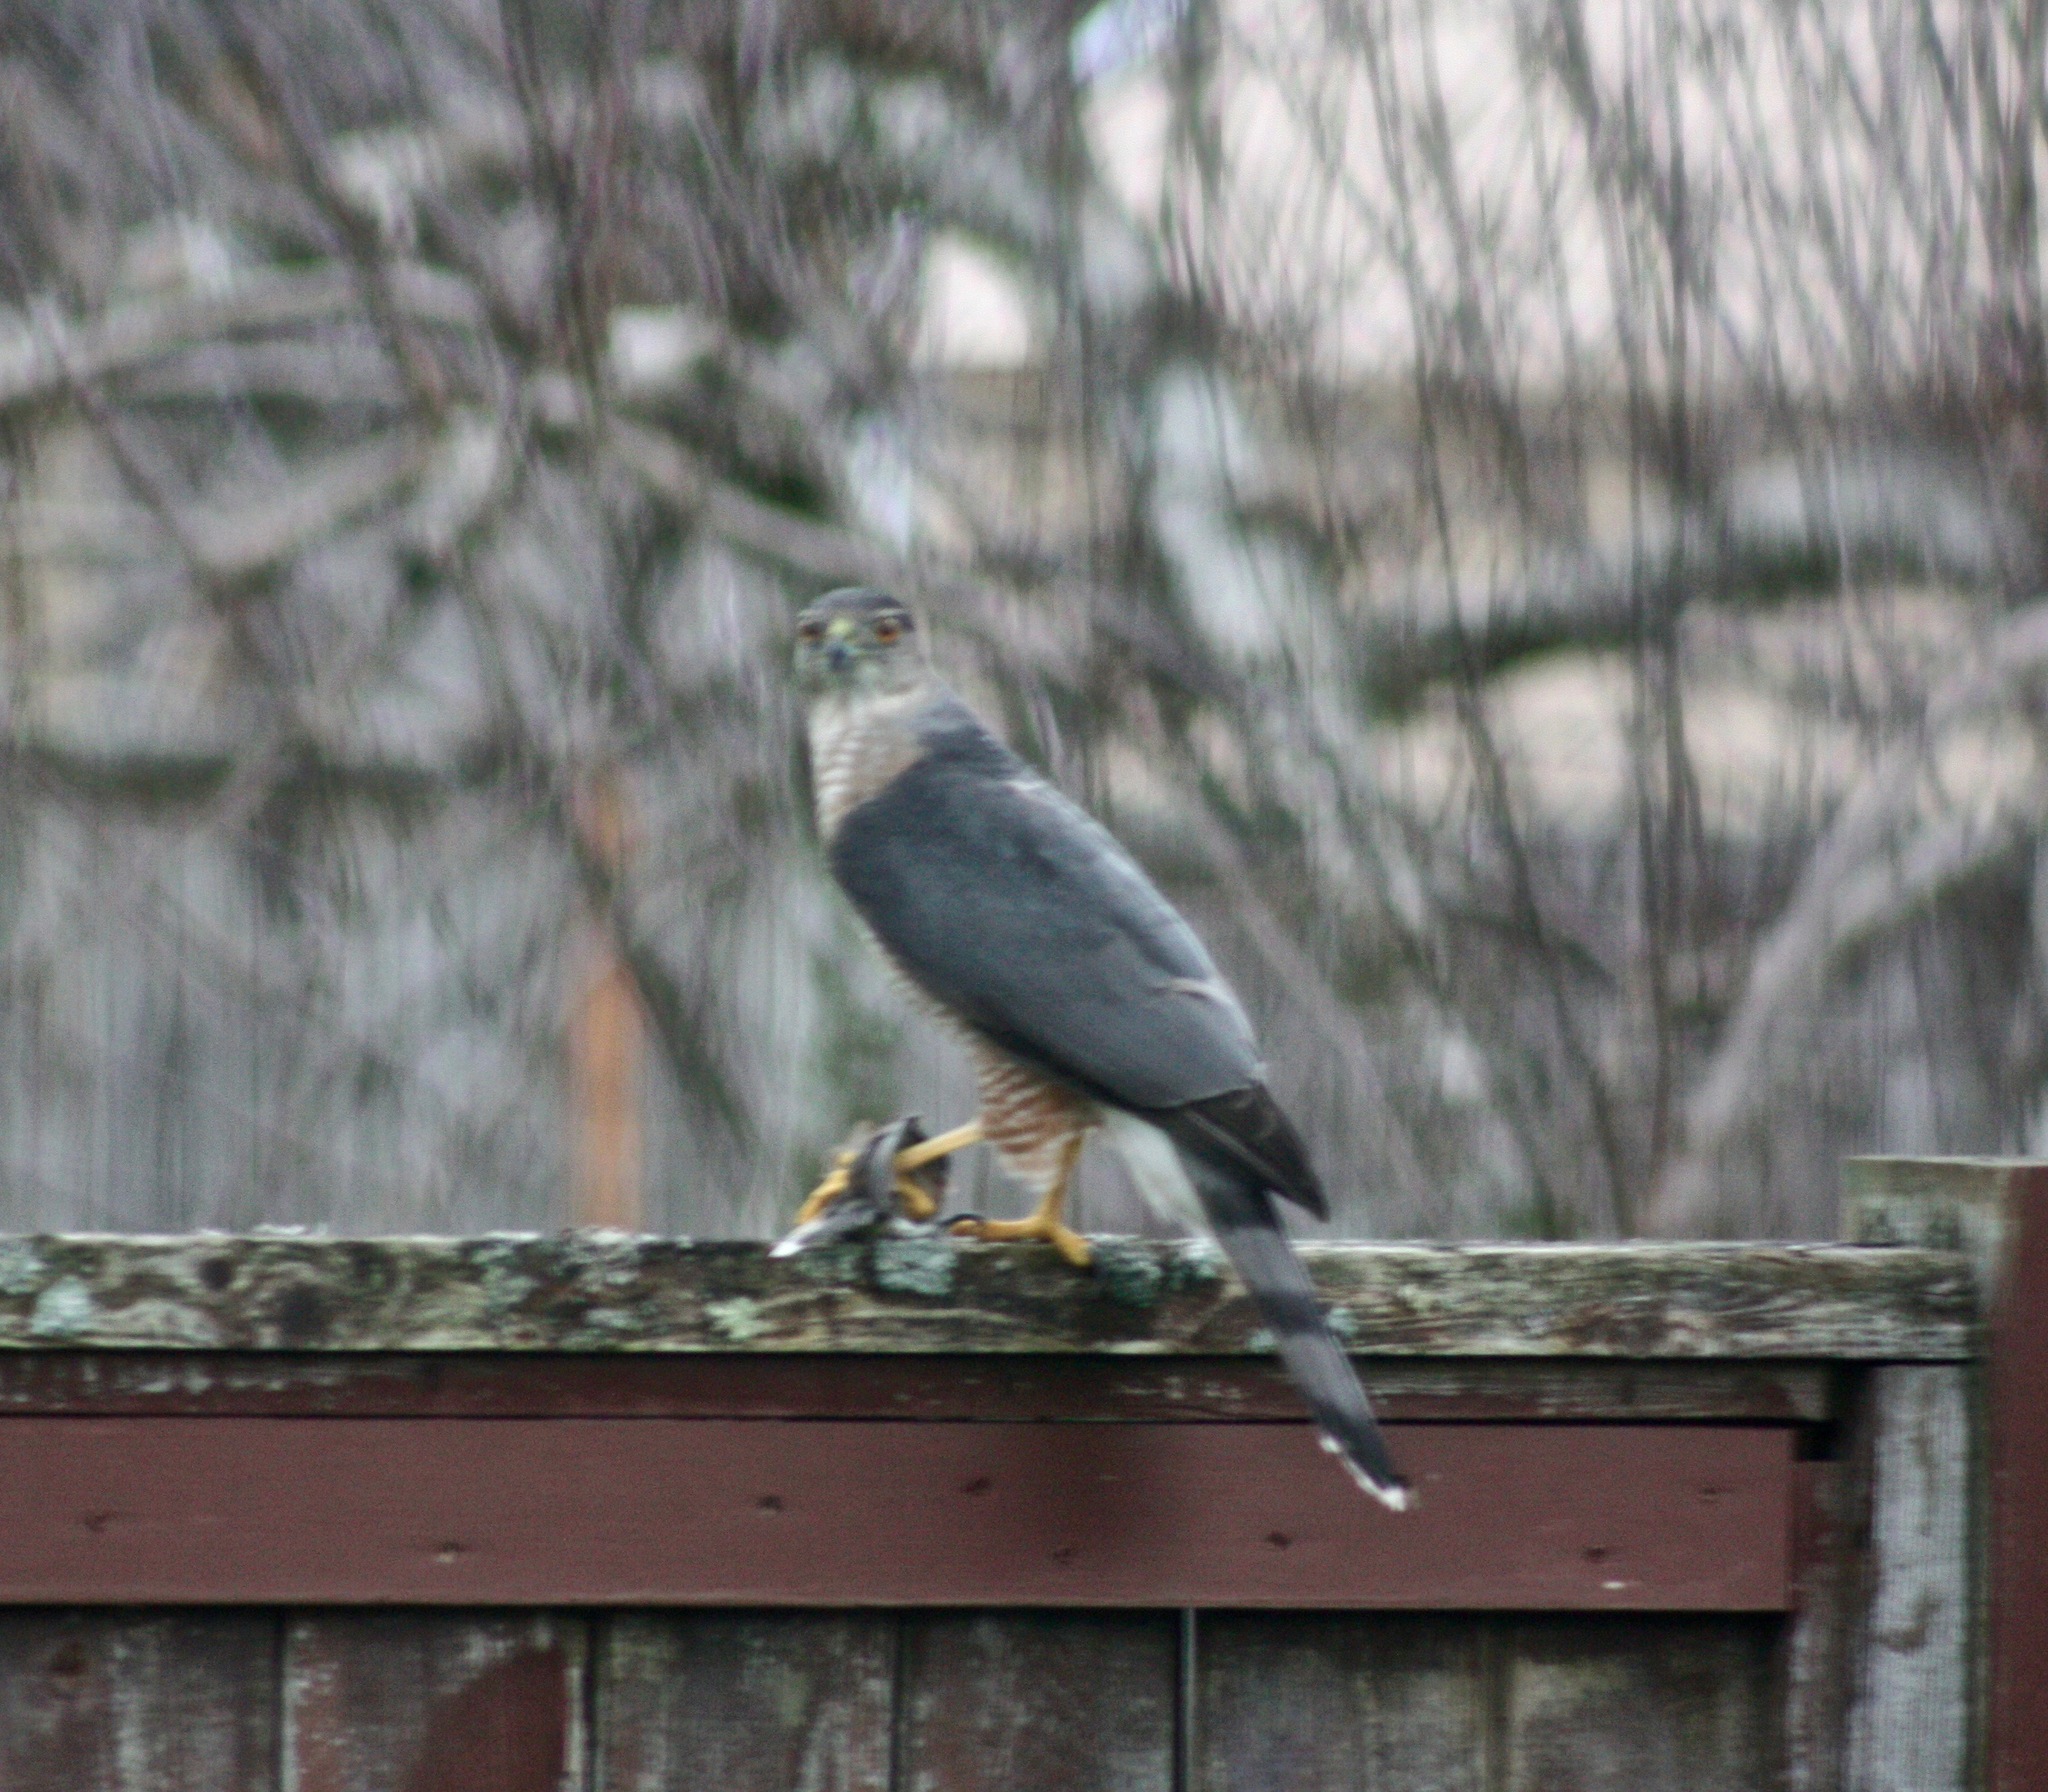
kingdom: Animalia
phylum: Chordata
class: Aves
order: Accipitriformes
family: Accipitridae
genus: Accipiter
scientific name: Accipiter cooperii
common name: Cooper's hawk
